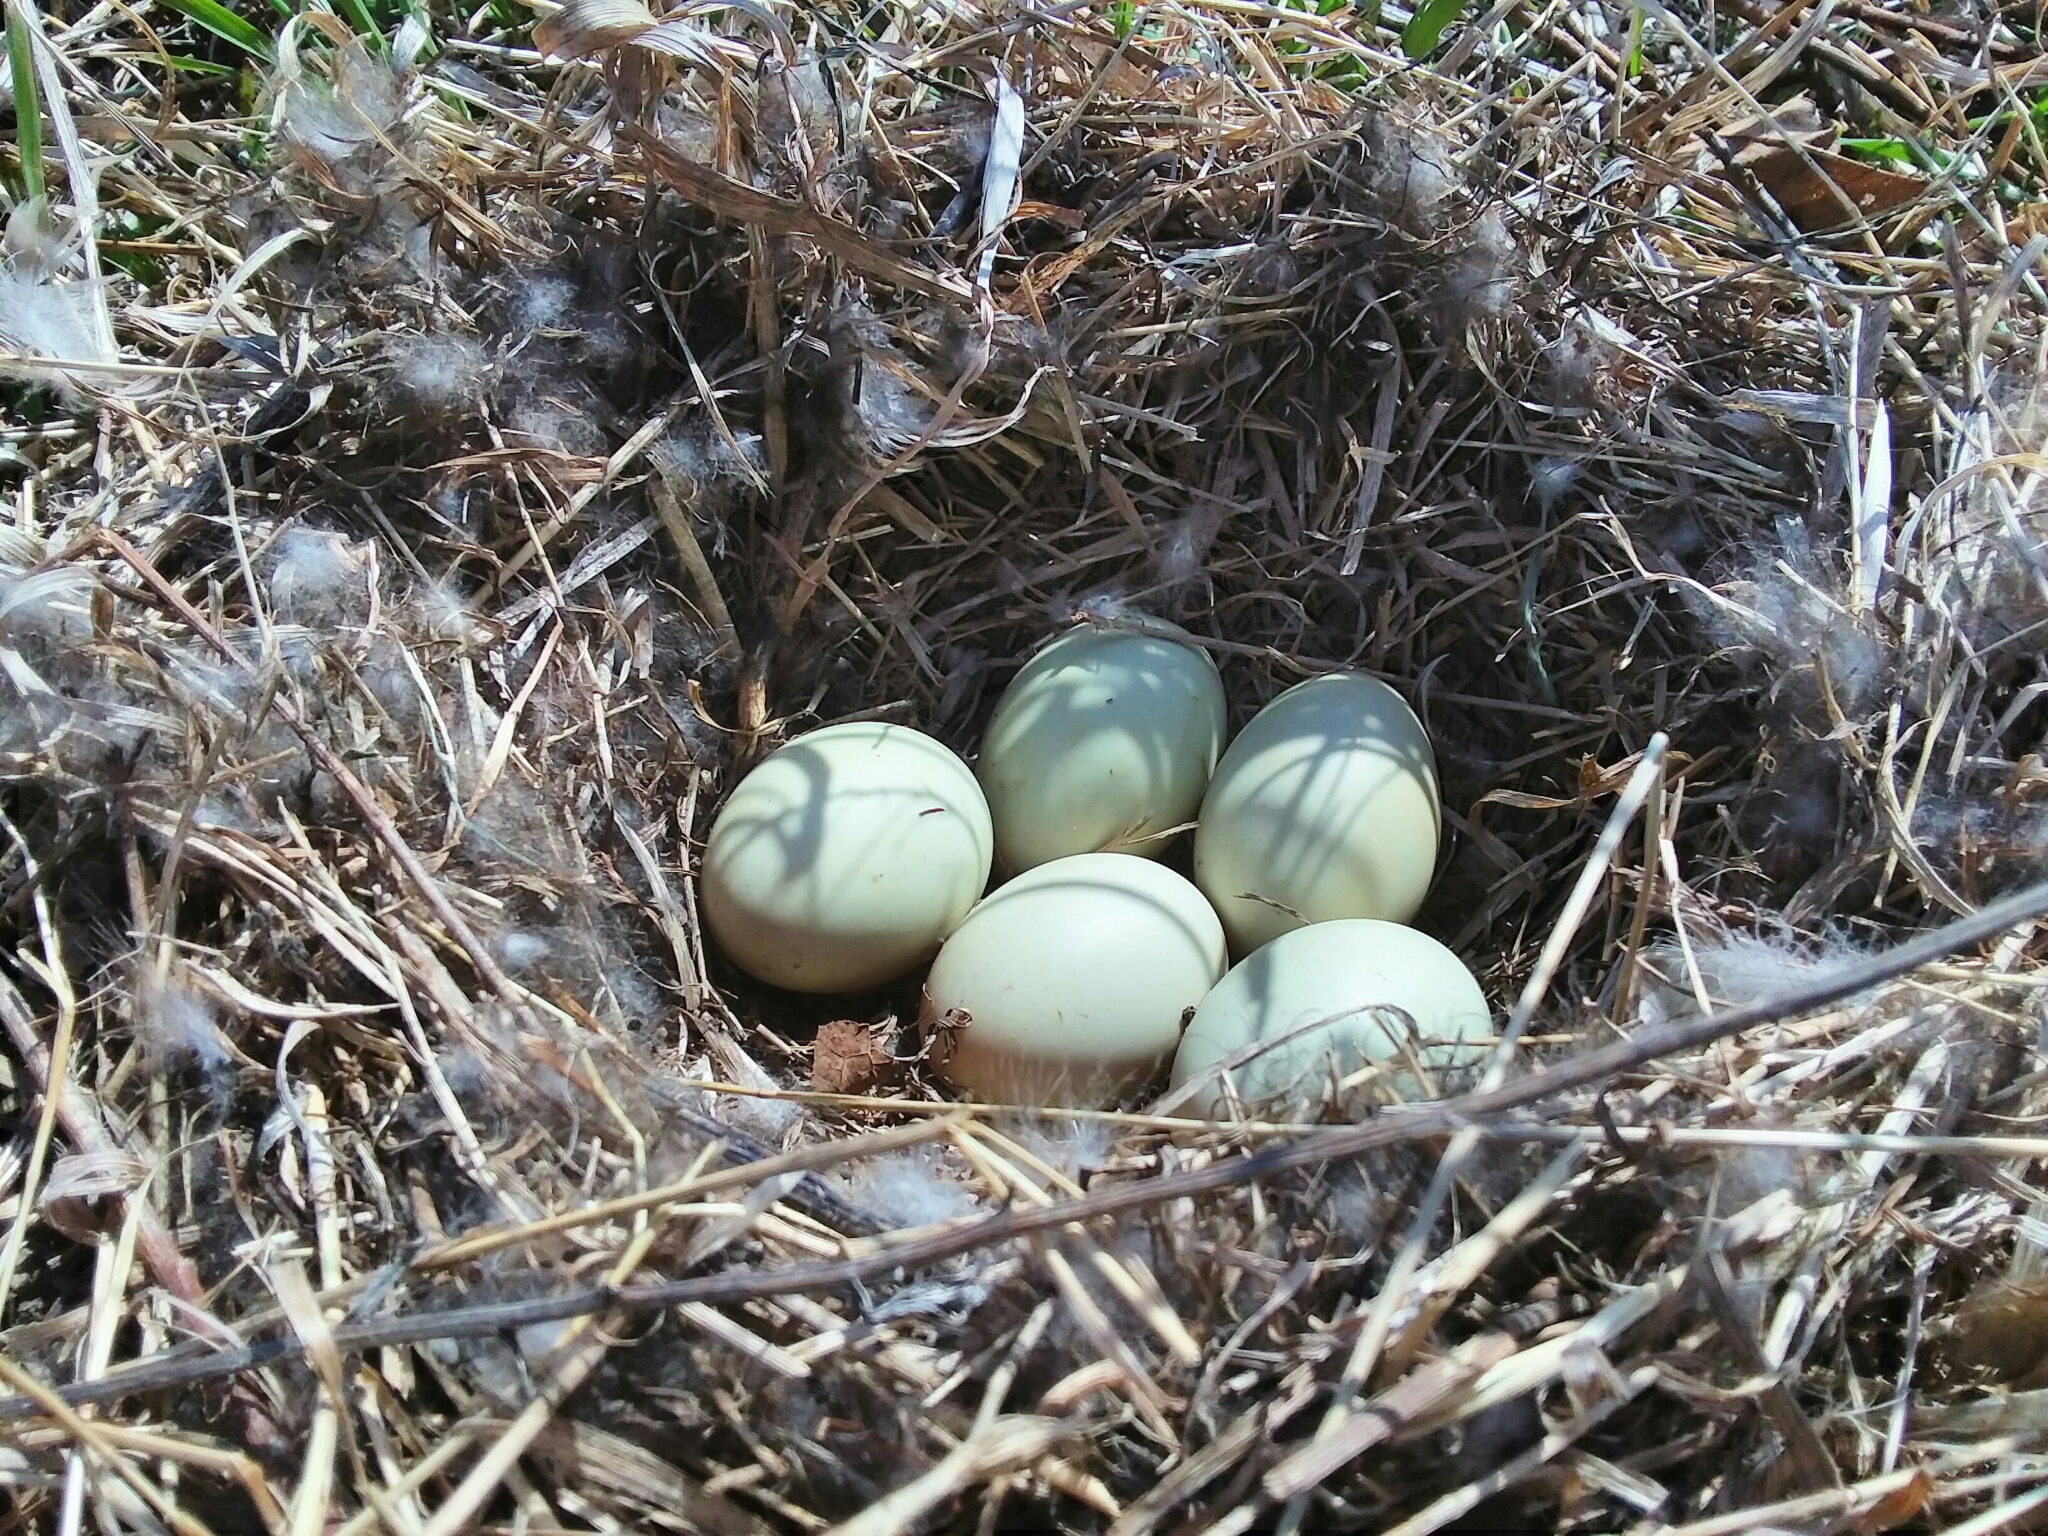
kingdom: Animalia
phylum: Chordata
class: Aves
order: Anseriformes
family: Anatidae
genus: Anas
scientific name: Anas platyrhynchos
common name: Mallard
